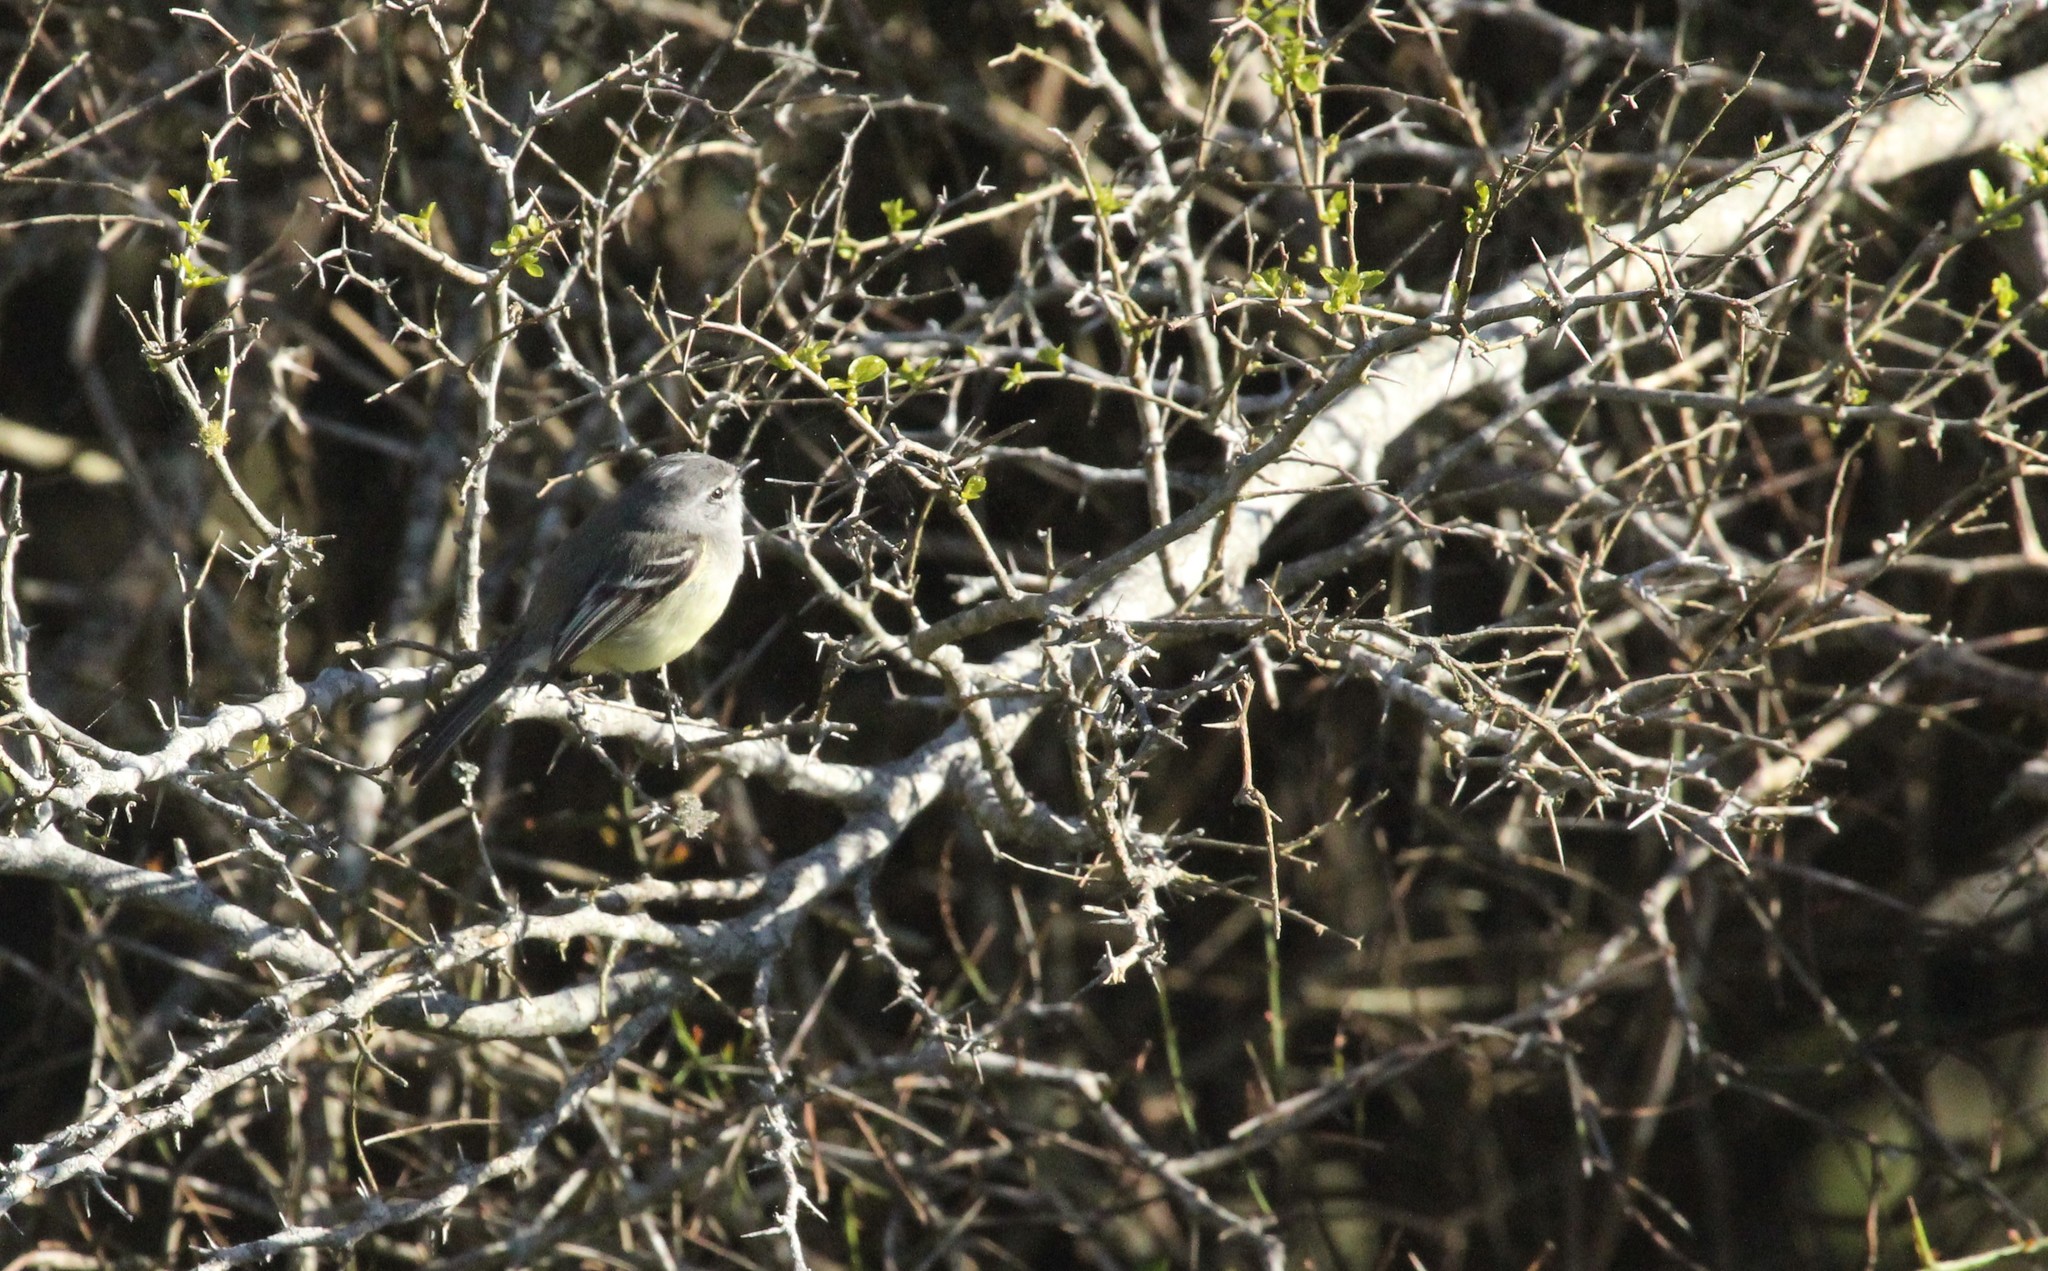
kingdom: Animalia
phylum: Chordata
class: Aves
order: Passeriformes
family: Tyrannidae
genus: Serpophaga
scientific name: Serpophaga subcristata
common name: White-crested tyrannulet
